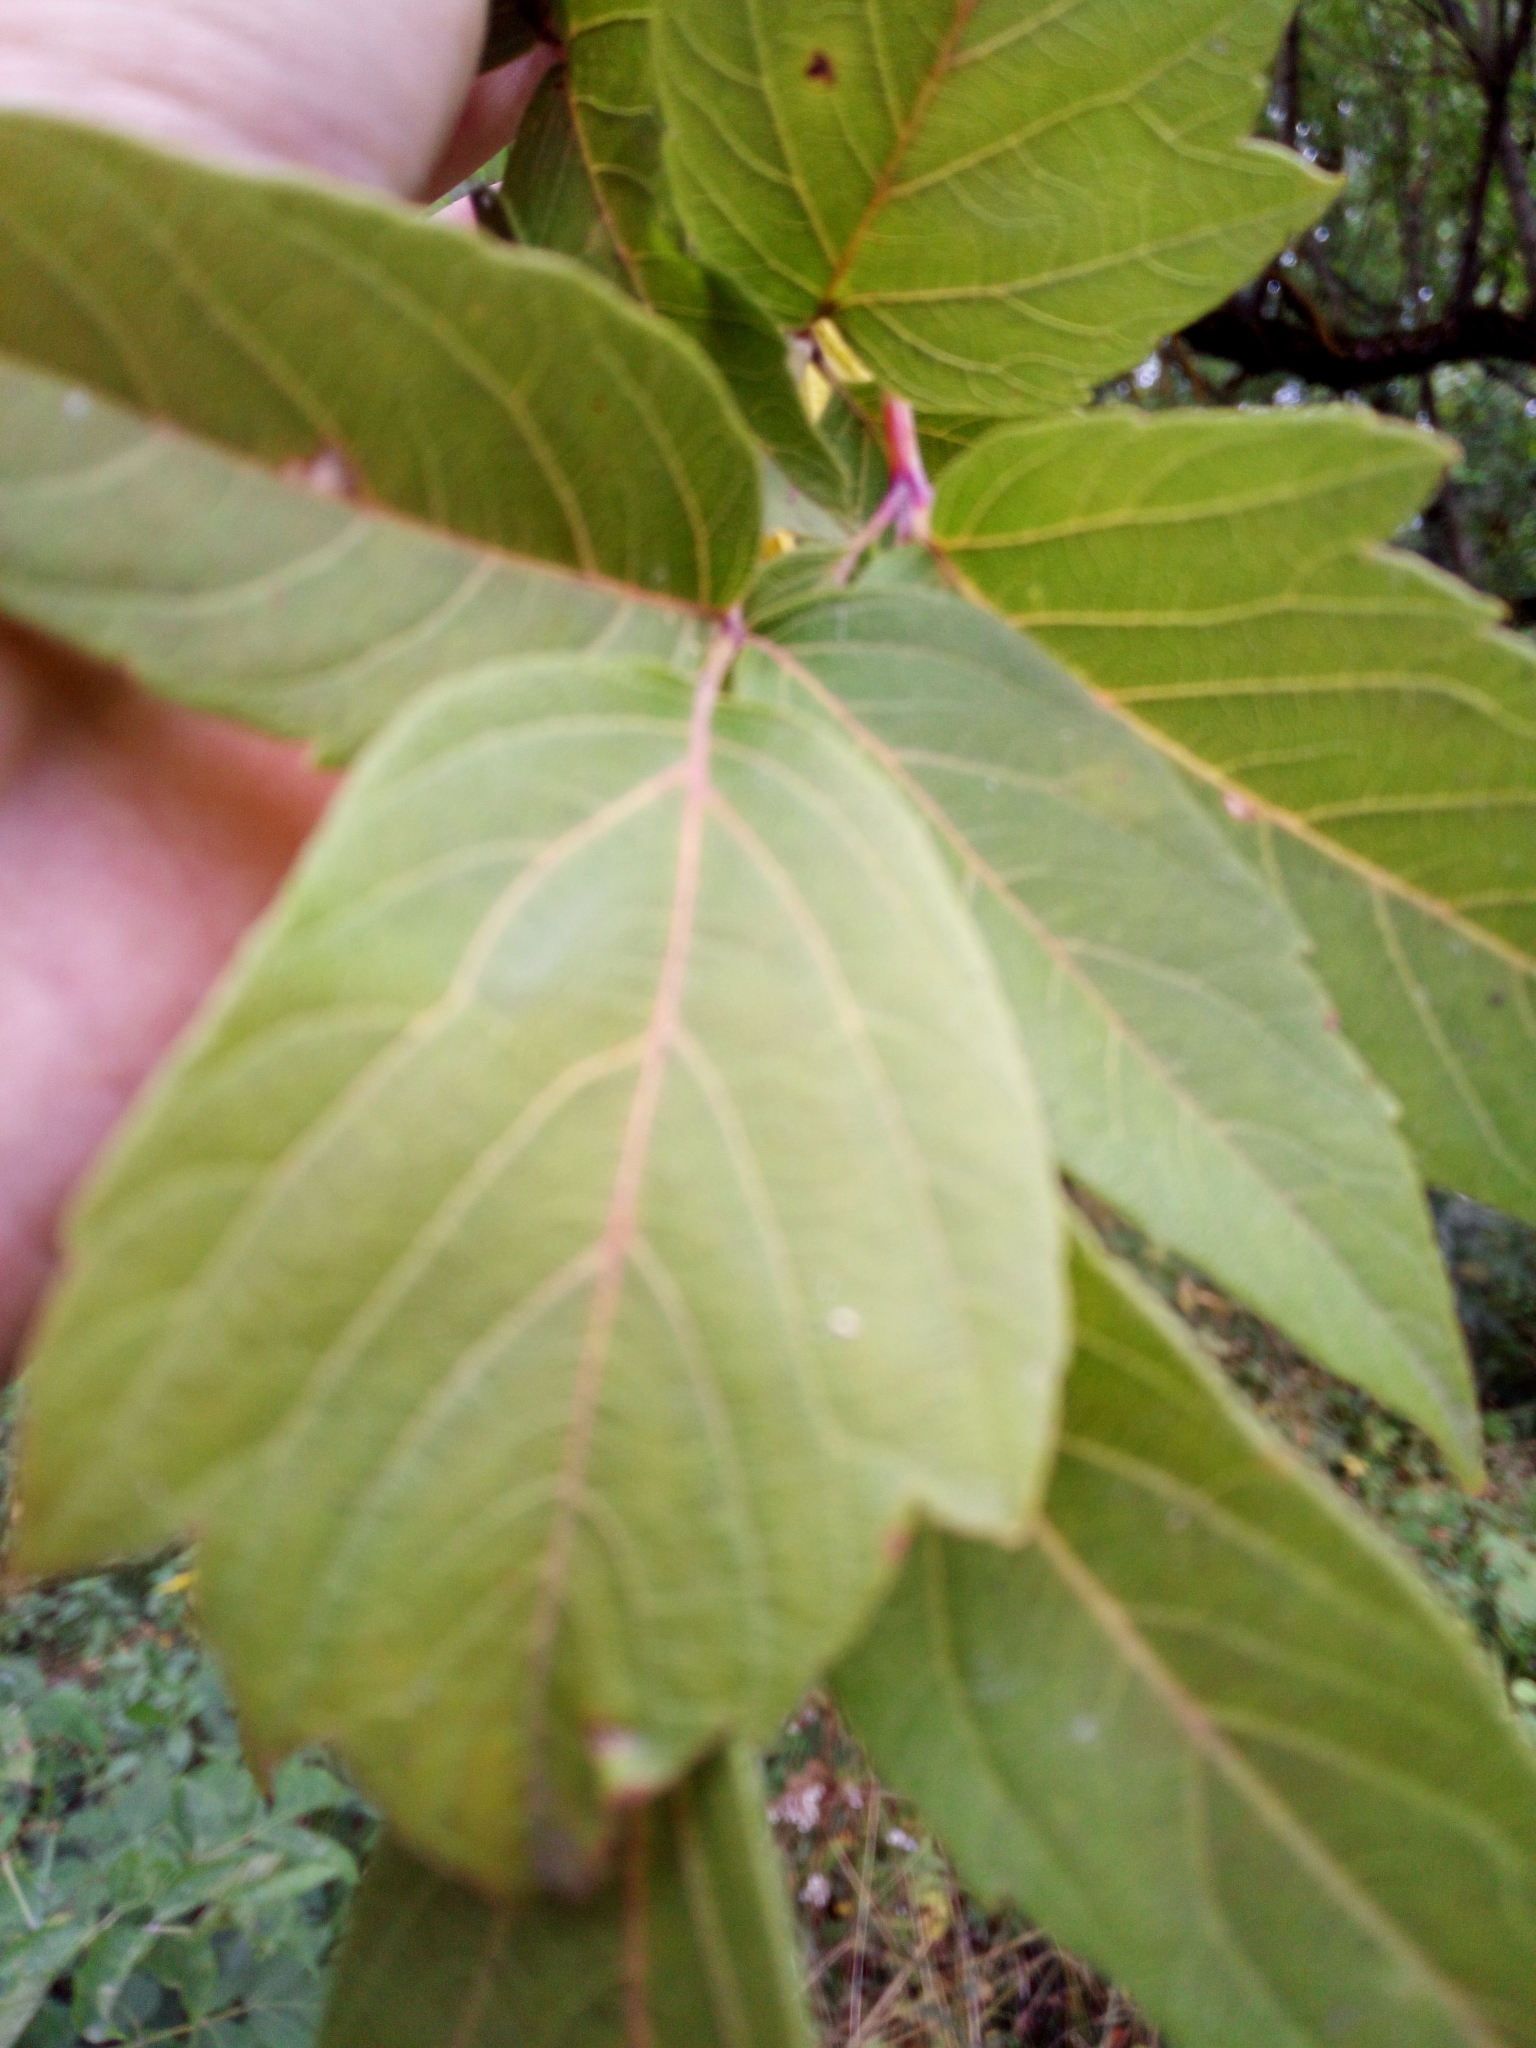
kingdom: Plantae
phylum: Tracheophyta
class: Magnoliopsida
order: Sapindales
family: Sapindaceae
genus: Acer
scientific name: Acer negundo
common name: Ashleaf maple
